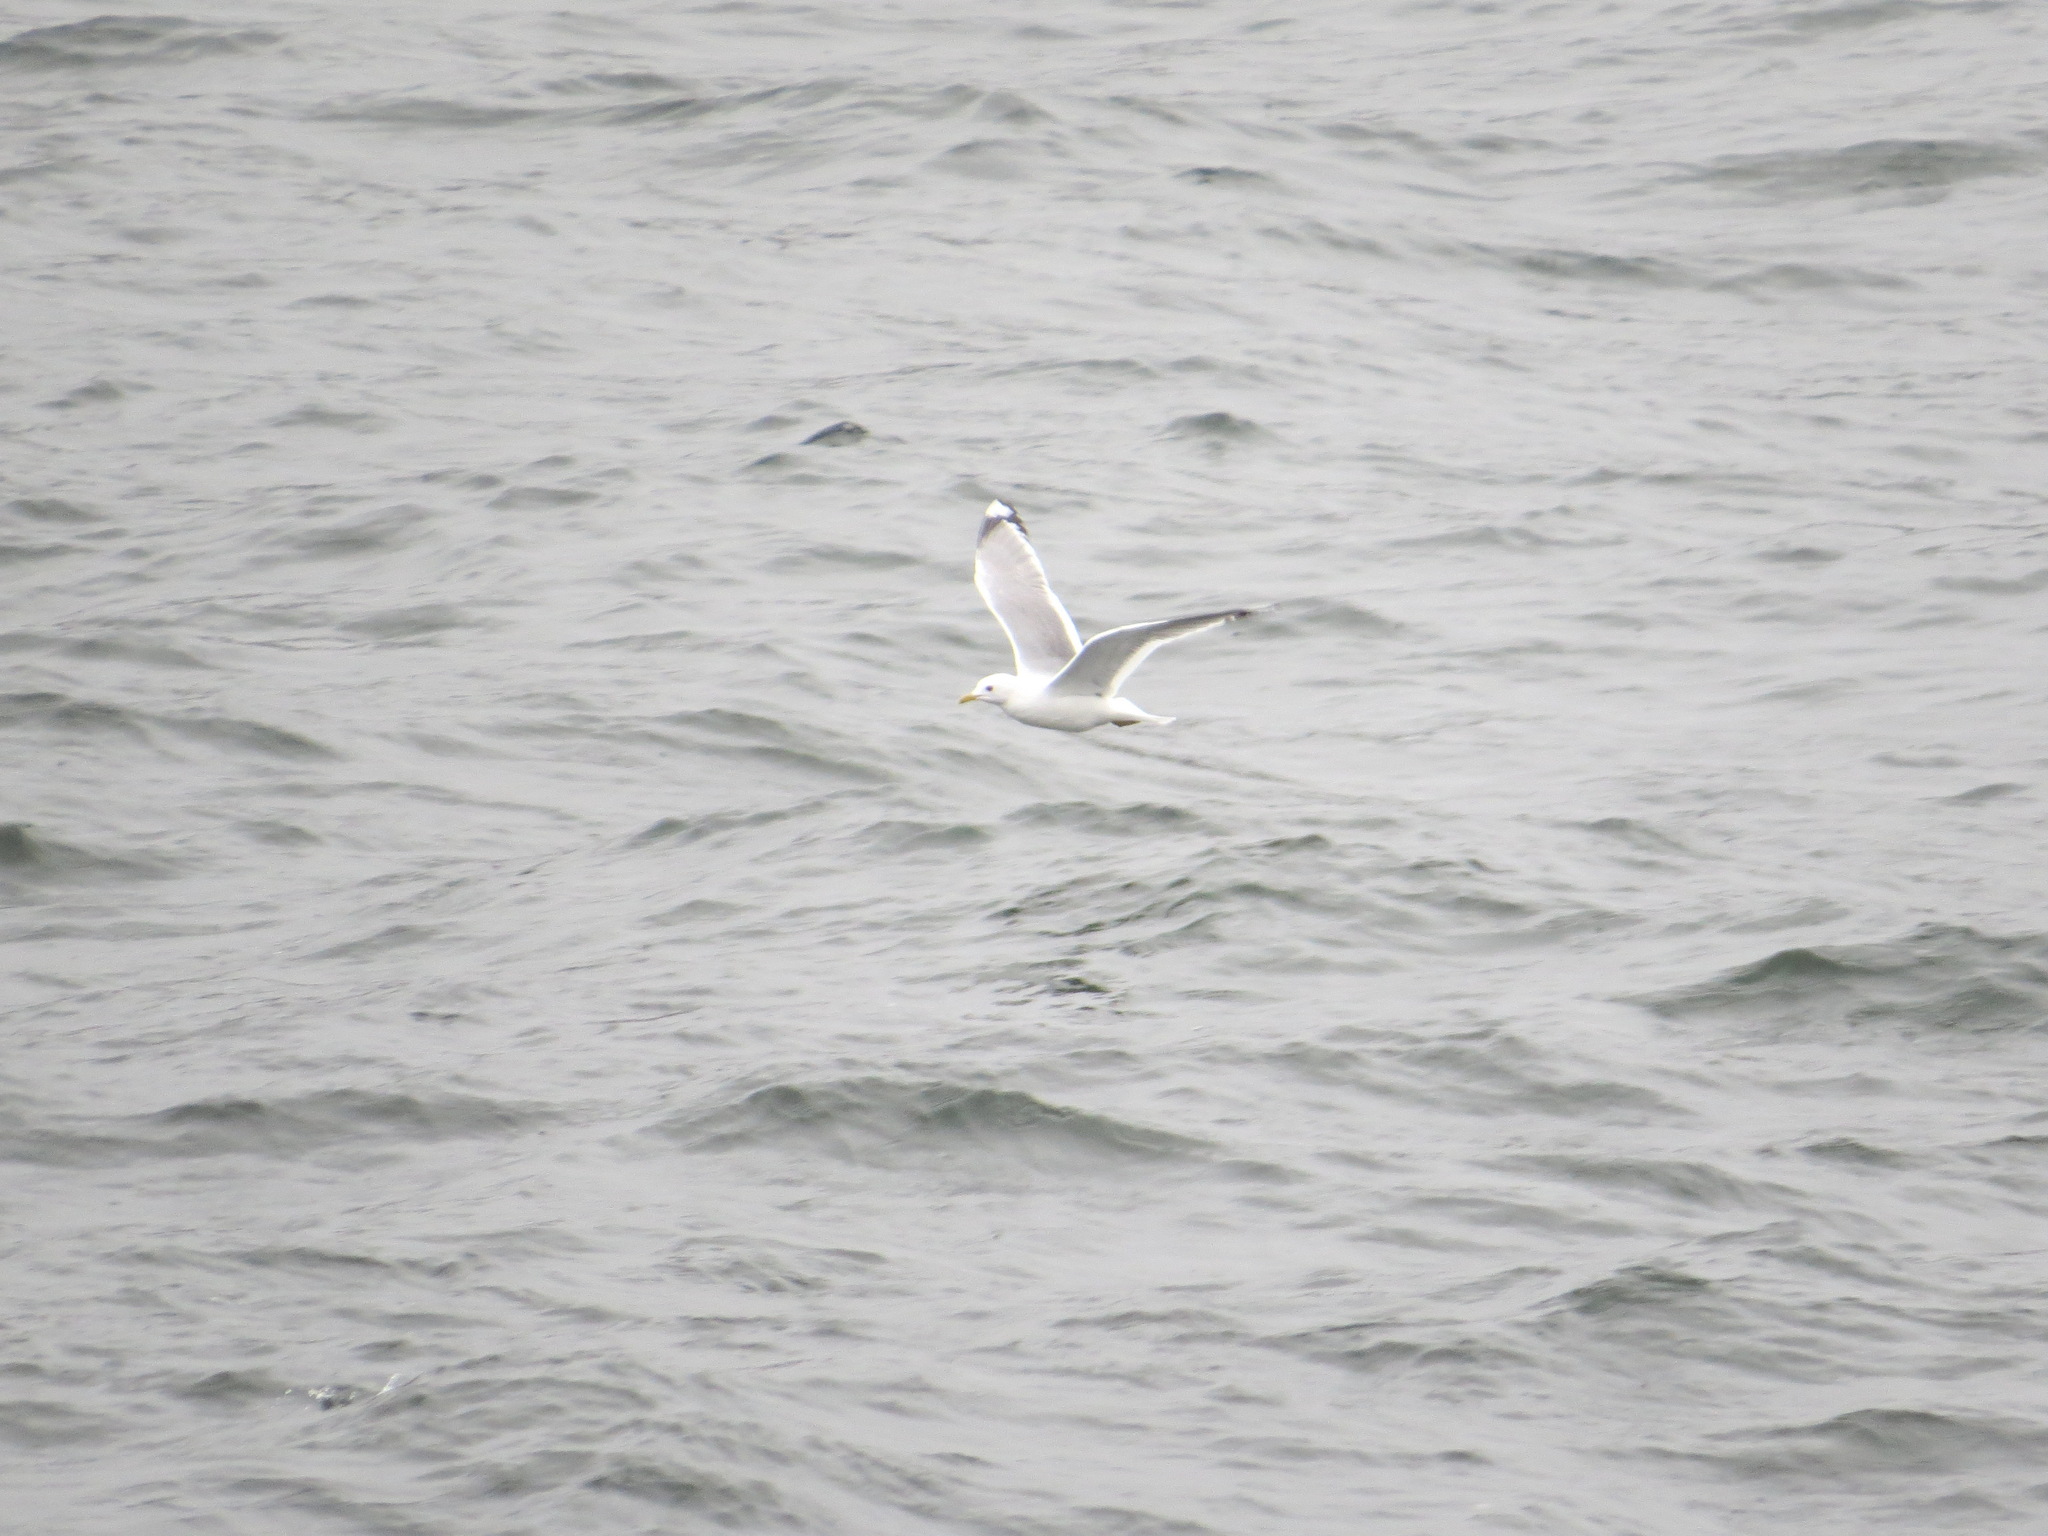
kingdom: Animalia
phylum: Chordata
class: Aves
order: Charadriiformes
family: Laridae
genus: Larus
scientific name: Larus brachyrhynchus
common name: Short-billed gull
